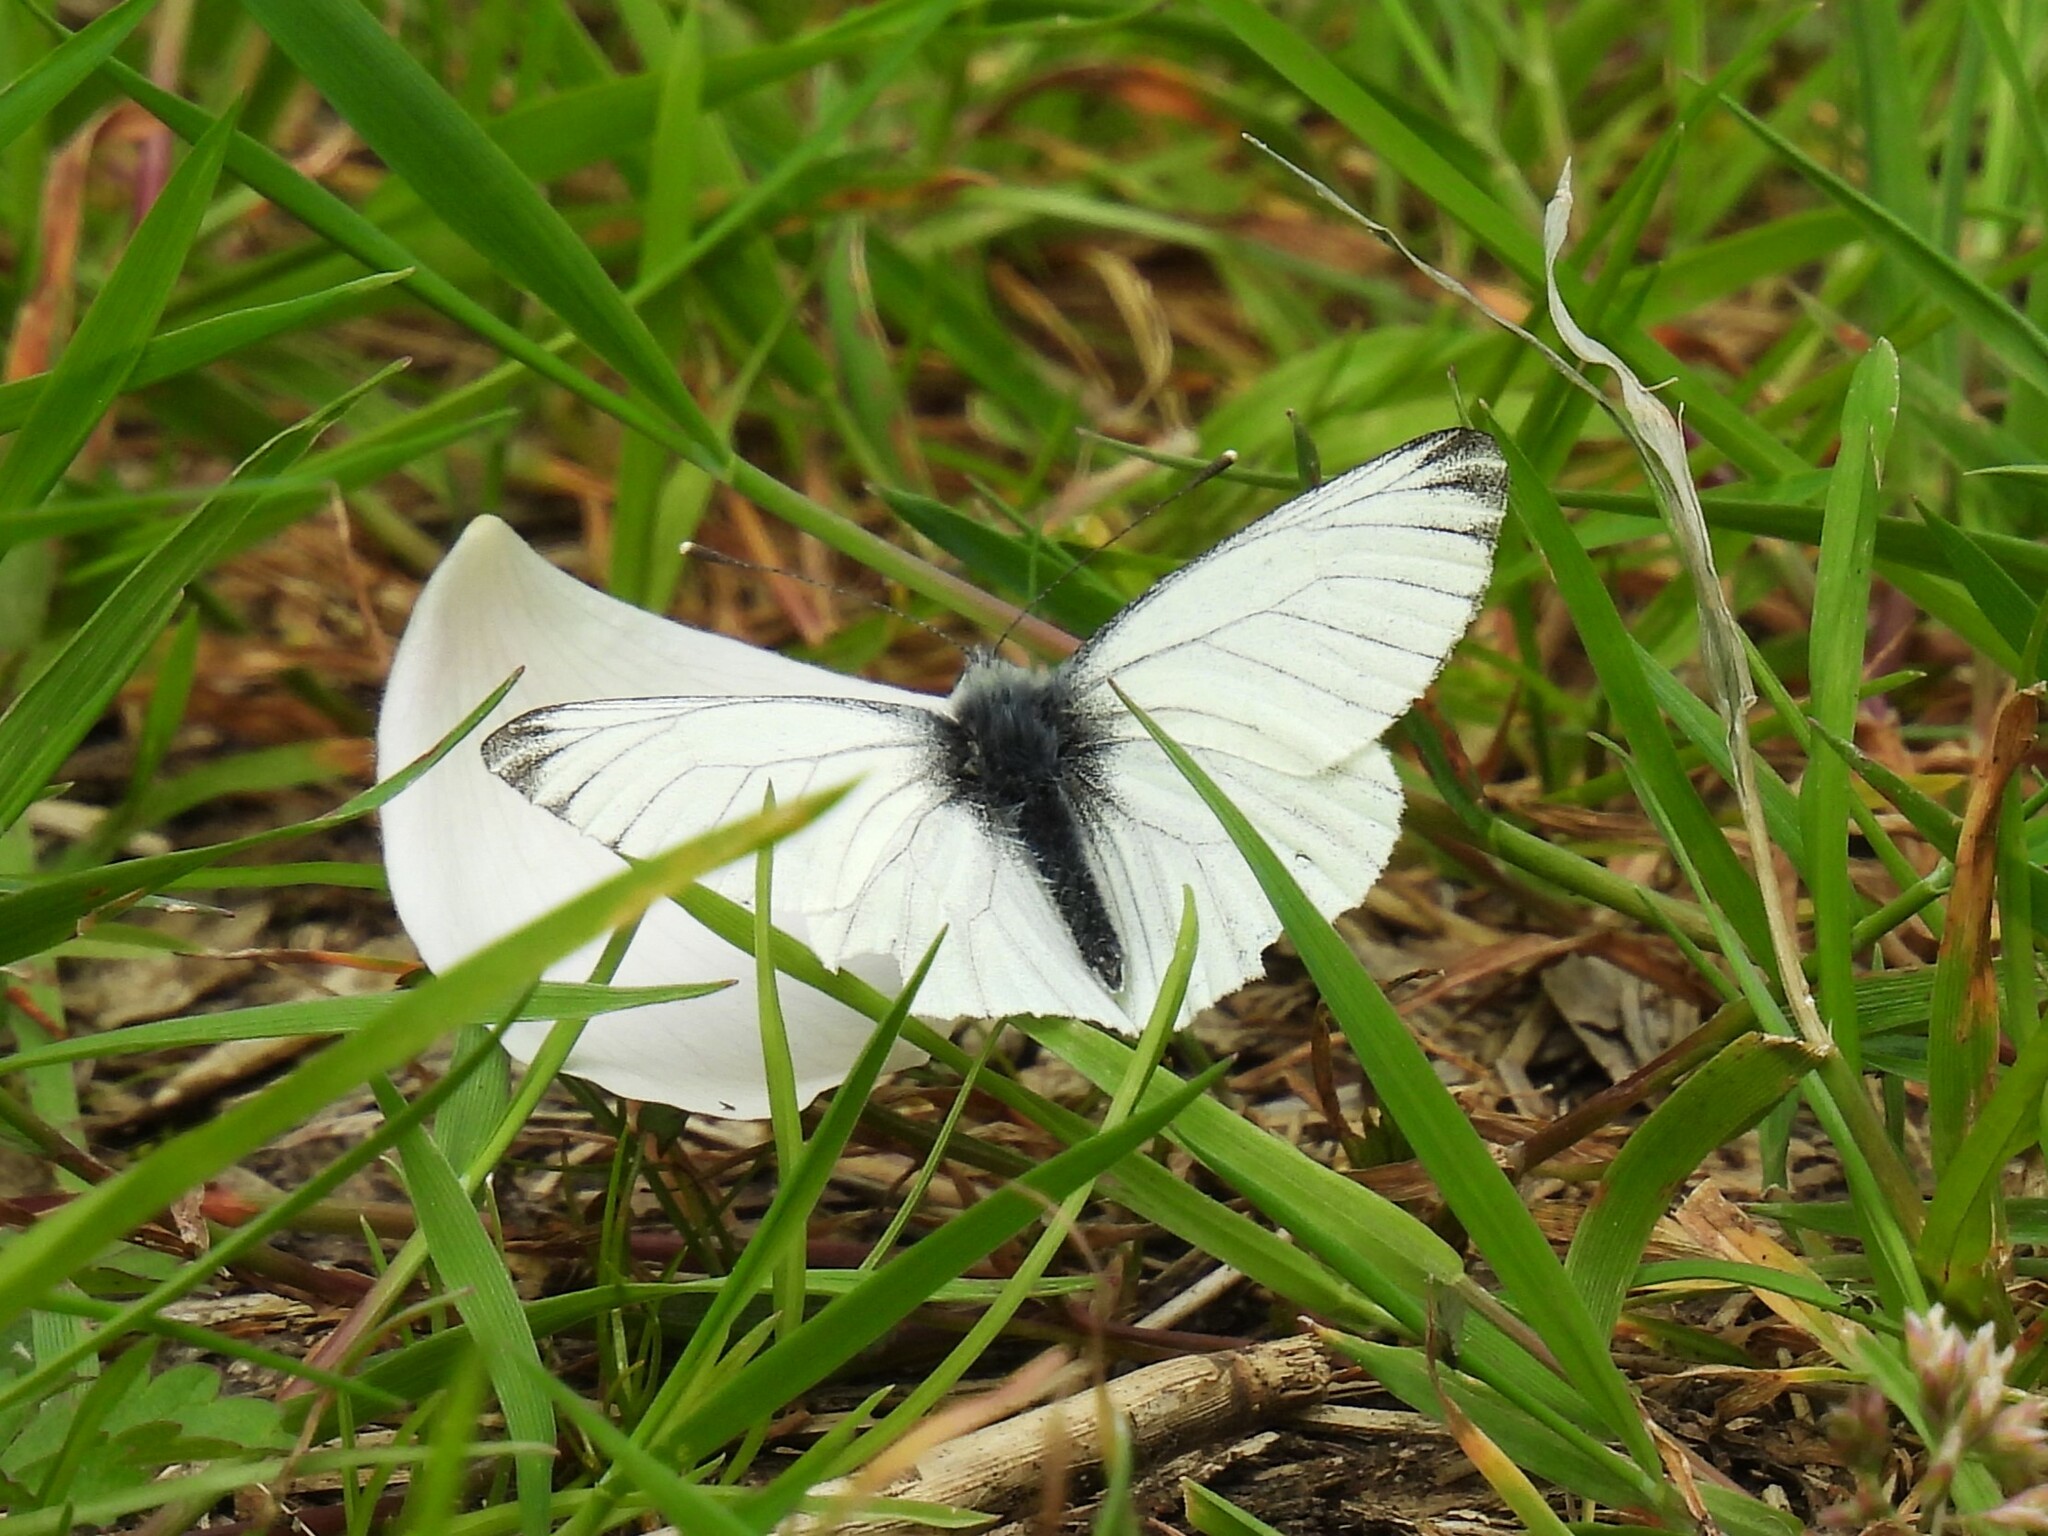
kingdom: Animalia
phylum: Arthropoda
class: Insecta
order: Lepidoptera
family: Pieridae
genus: Pieris
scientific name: Pieris napi
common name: Green-veined white
